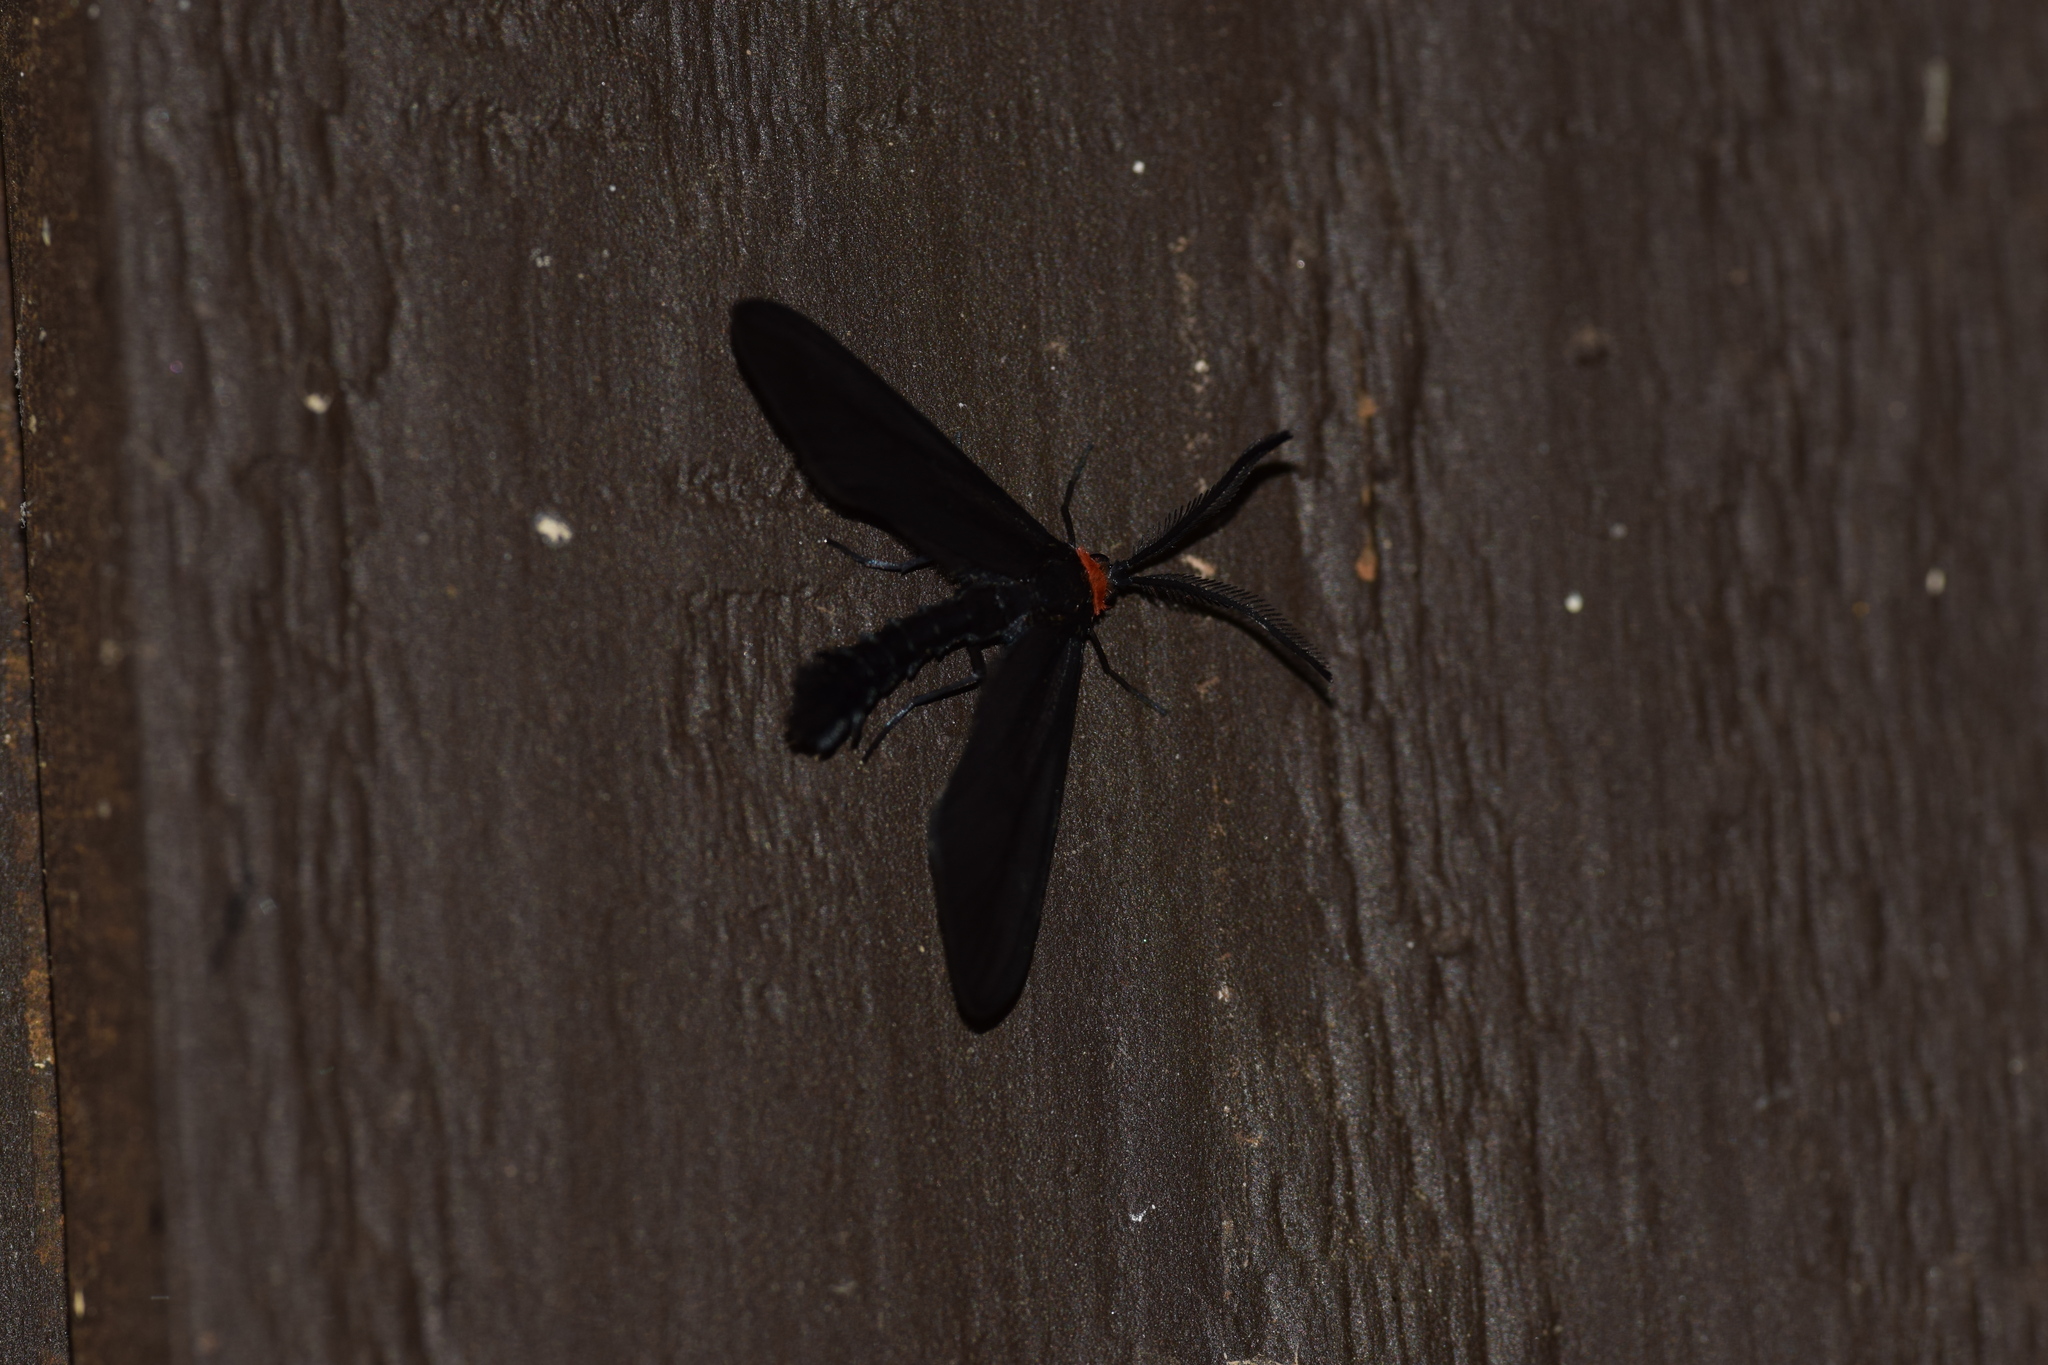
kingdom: Animalia
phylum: Arthropoda
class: Insecta
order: Lepidoptera
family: Zygaenidae
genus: Harrisina
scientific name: Harrisina americana
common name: Grapeleaf skeletonizer moth
